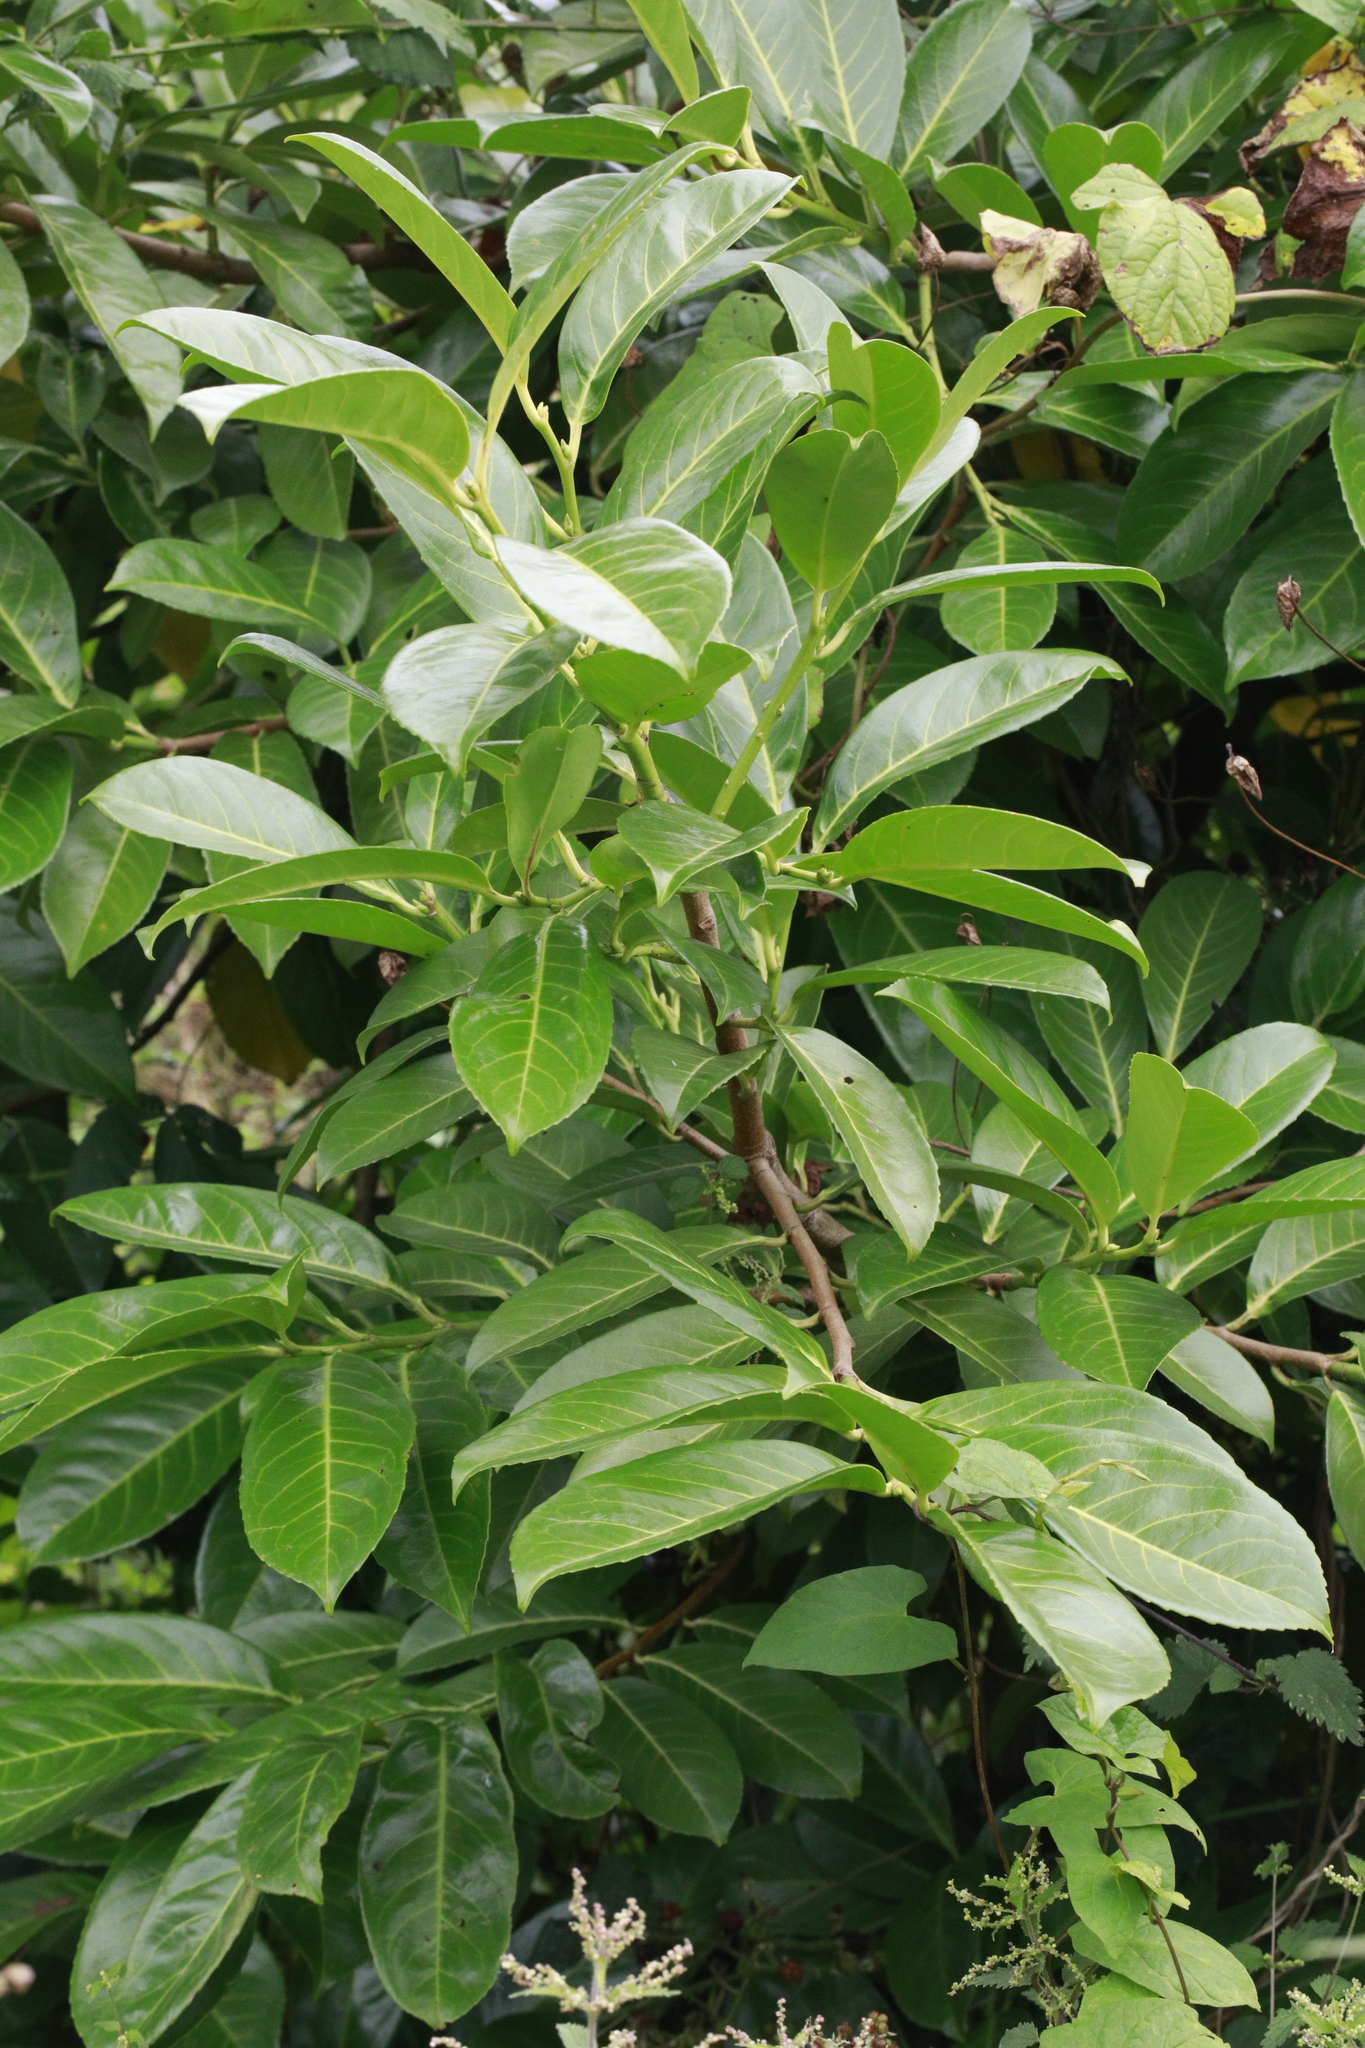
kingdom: Plantae
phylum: Tracheophyta
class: Magnoliopsida
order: Rosales
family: Rosaceae
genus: Prunus
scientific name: Prunus laurocerasus
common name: Cherry laurel
